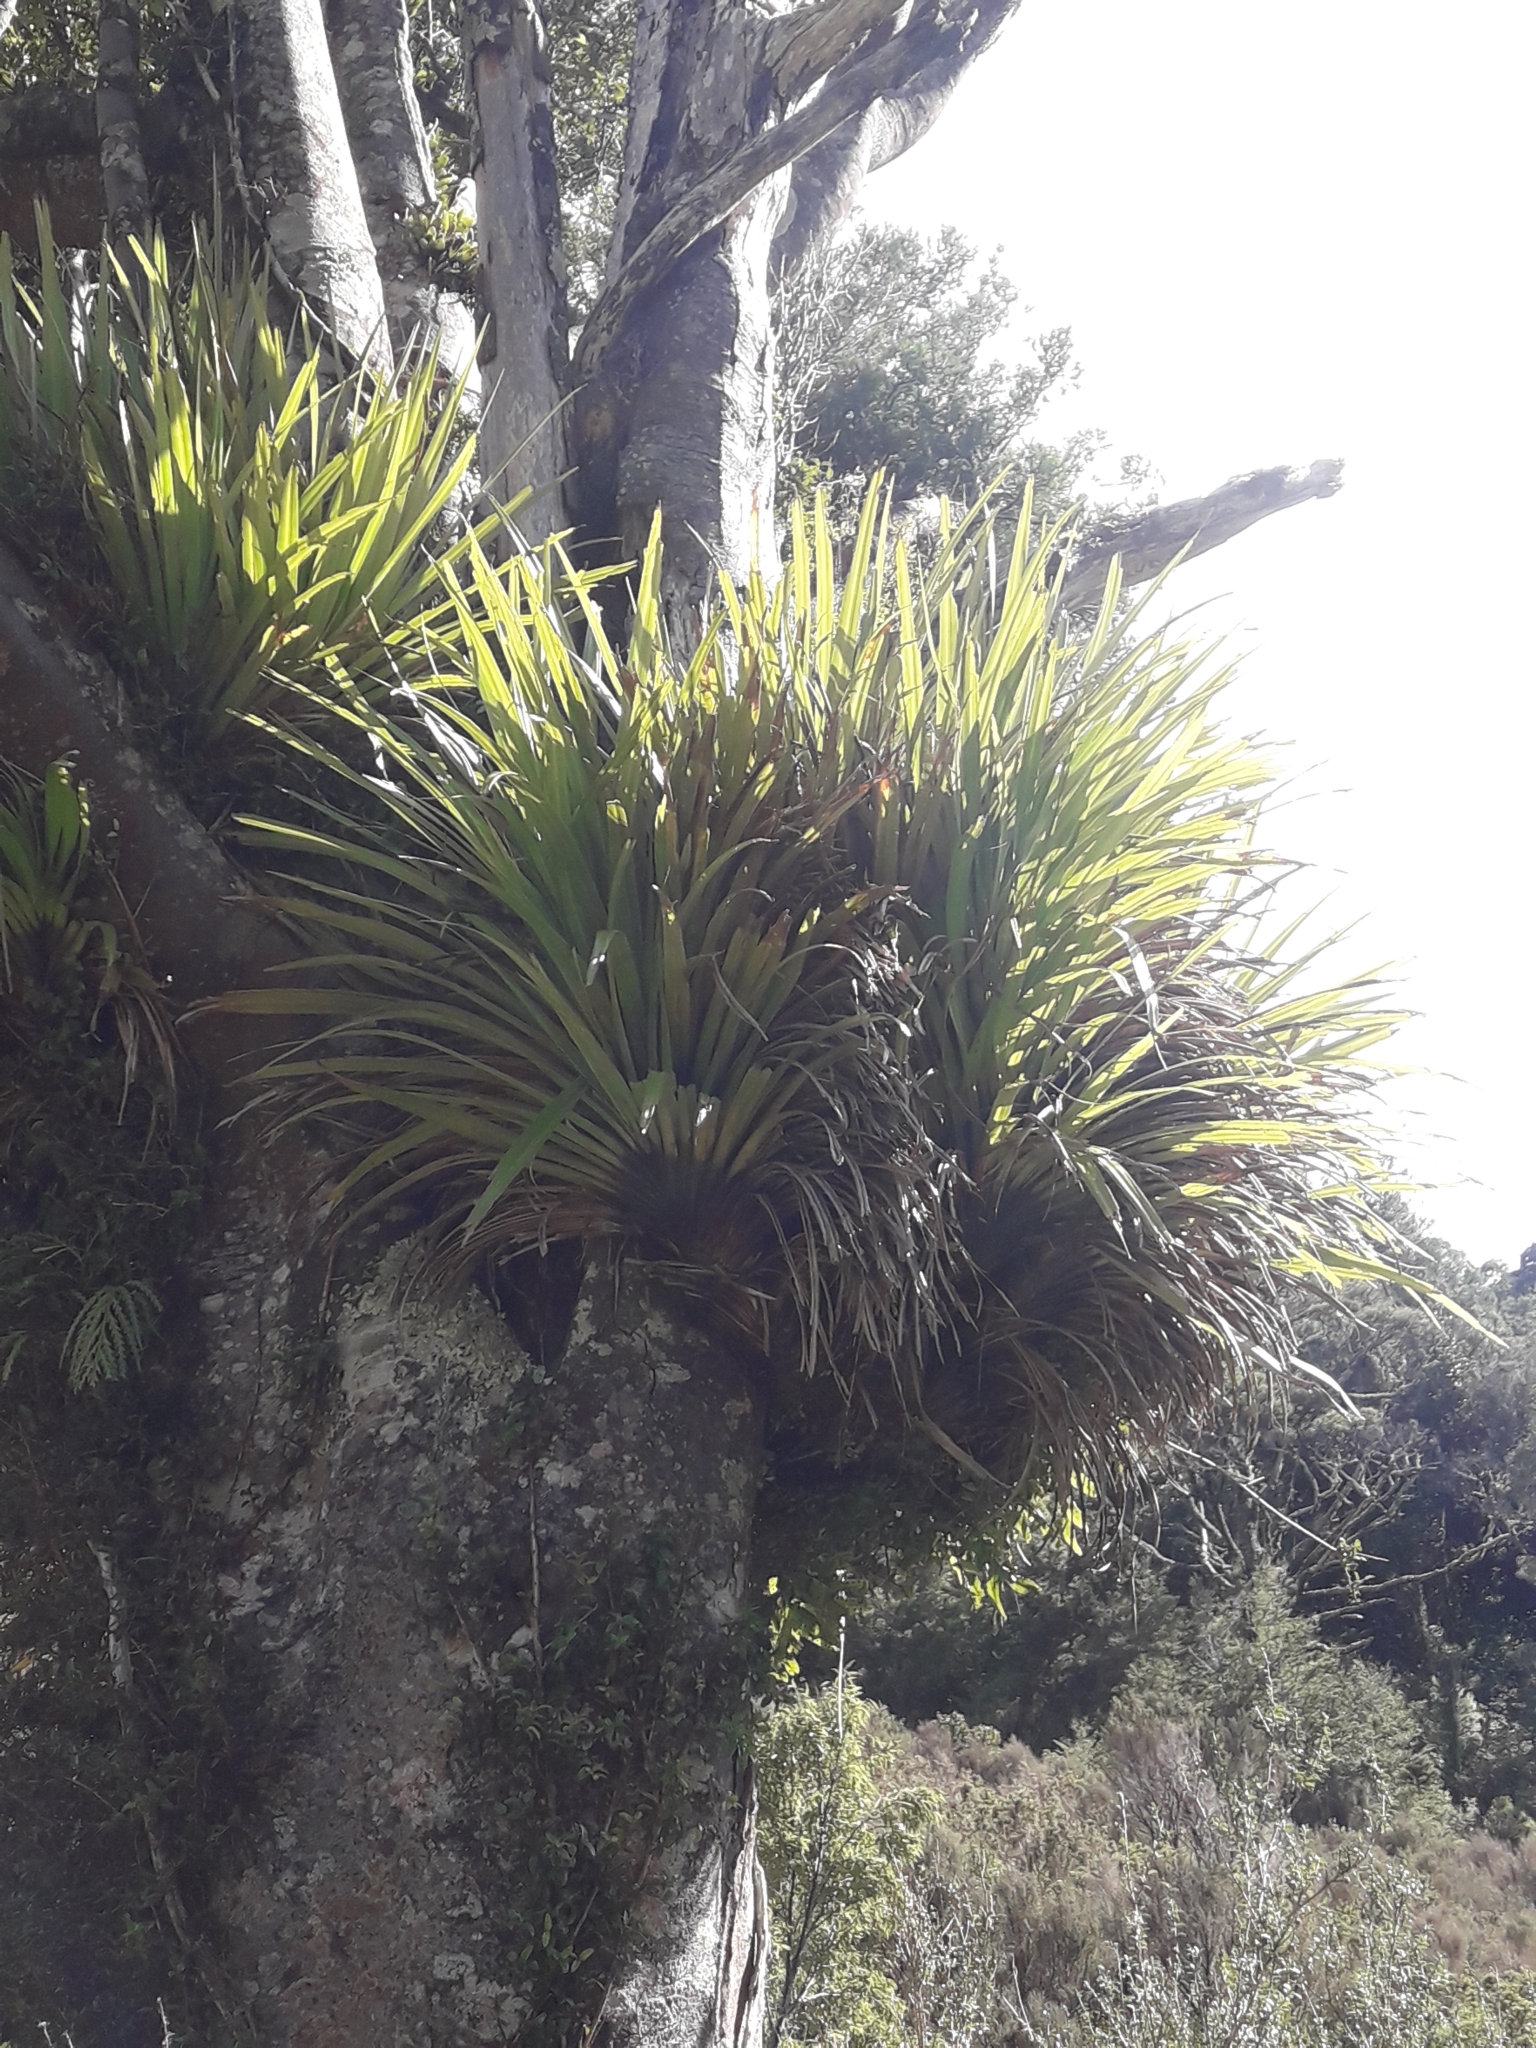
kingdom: Plantae
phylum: Tracheophyta
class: Liliopsida
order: Asparagales
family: Asteliaceae
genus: Astelia
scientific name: Astelia microsperma
